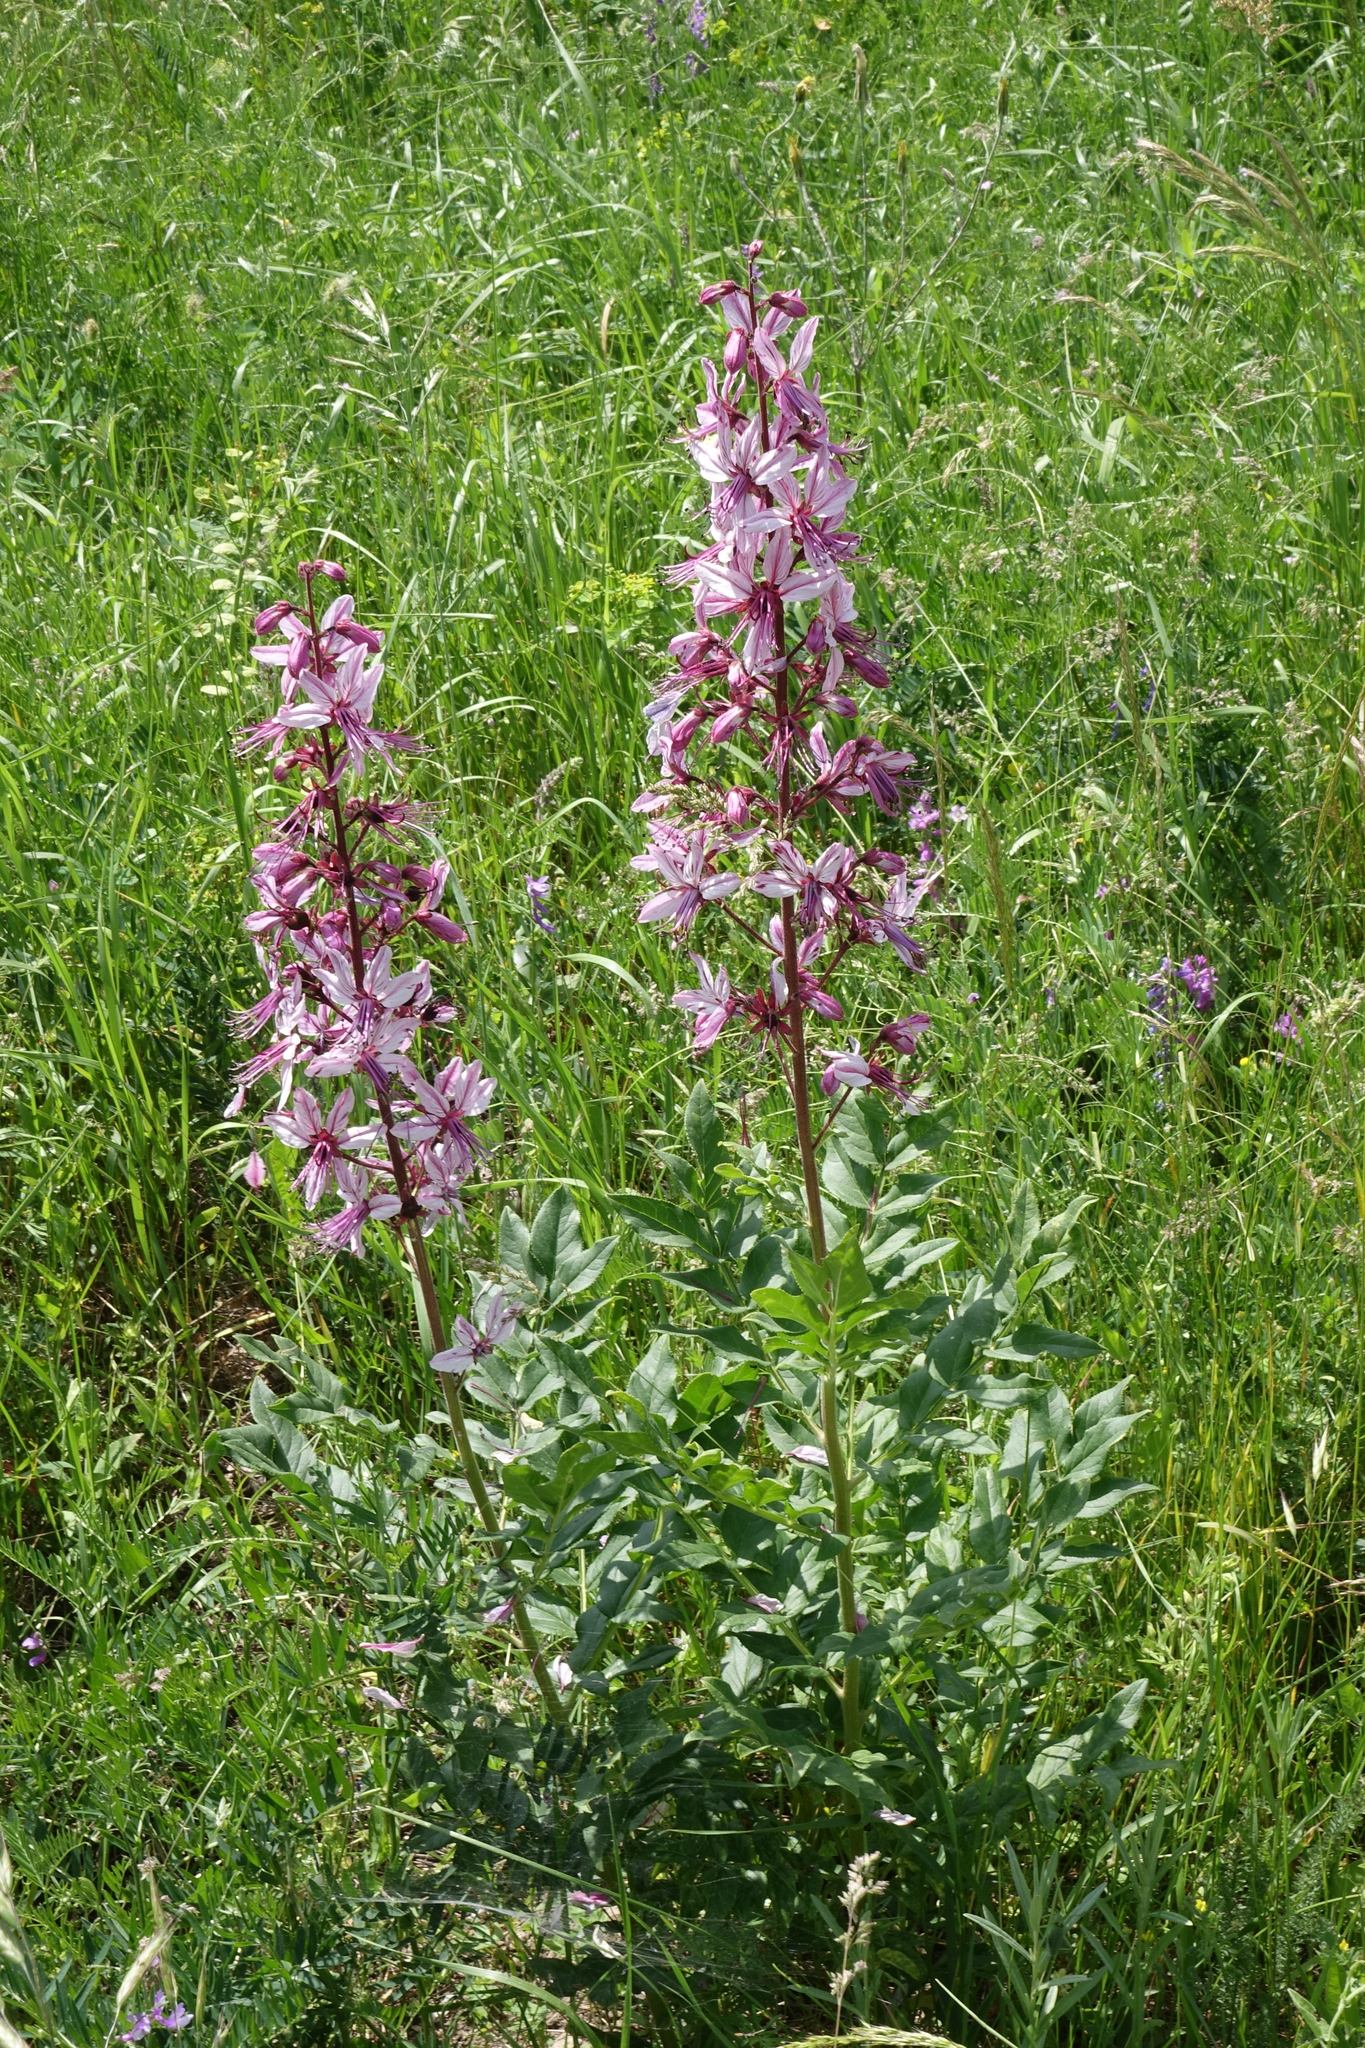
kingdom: Plantae
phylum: Tracheophyta
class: Magnoliopsida
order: Sapindales
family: Rutaceae
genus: Dictamnus
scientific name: Dictamnus albus
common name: Gasplant
